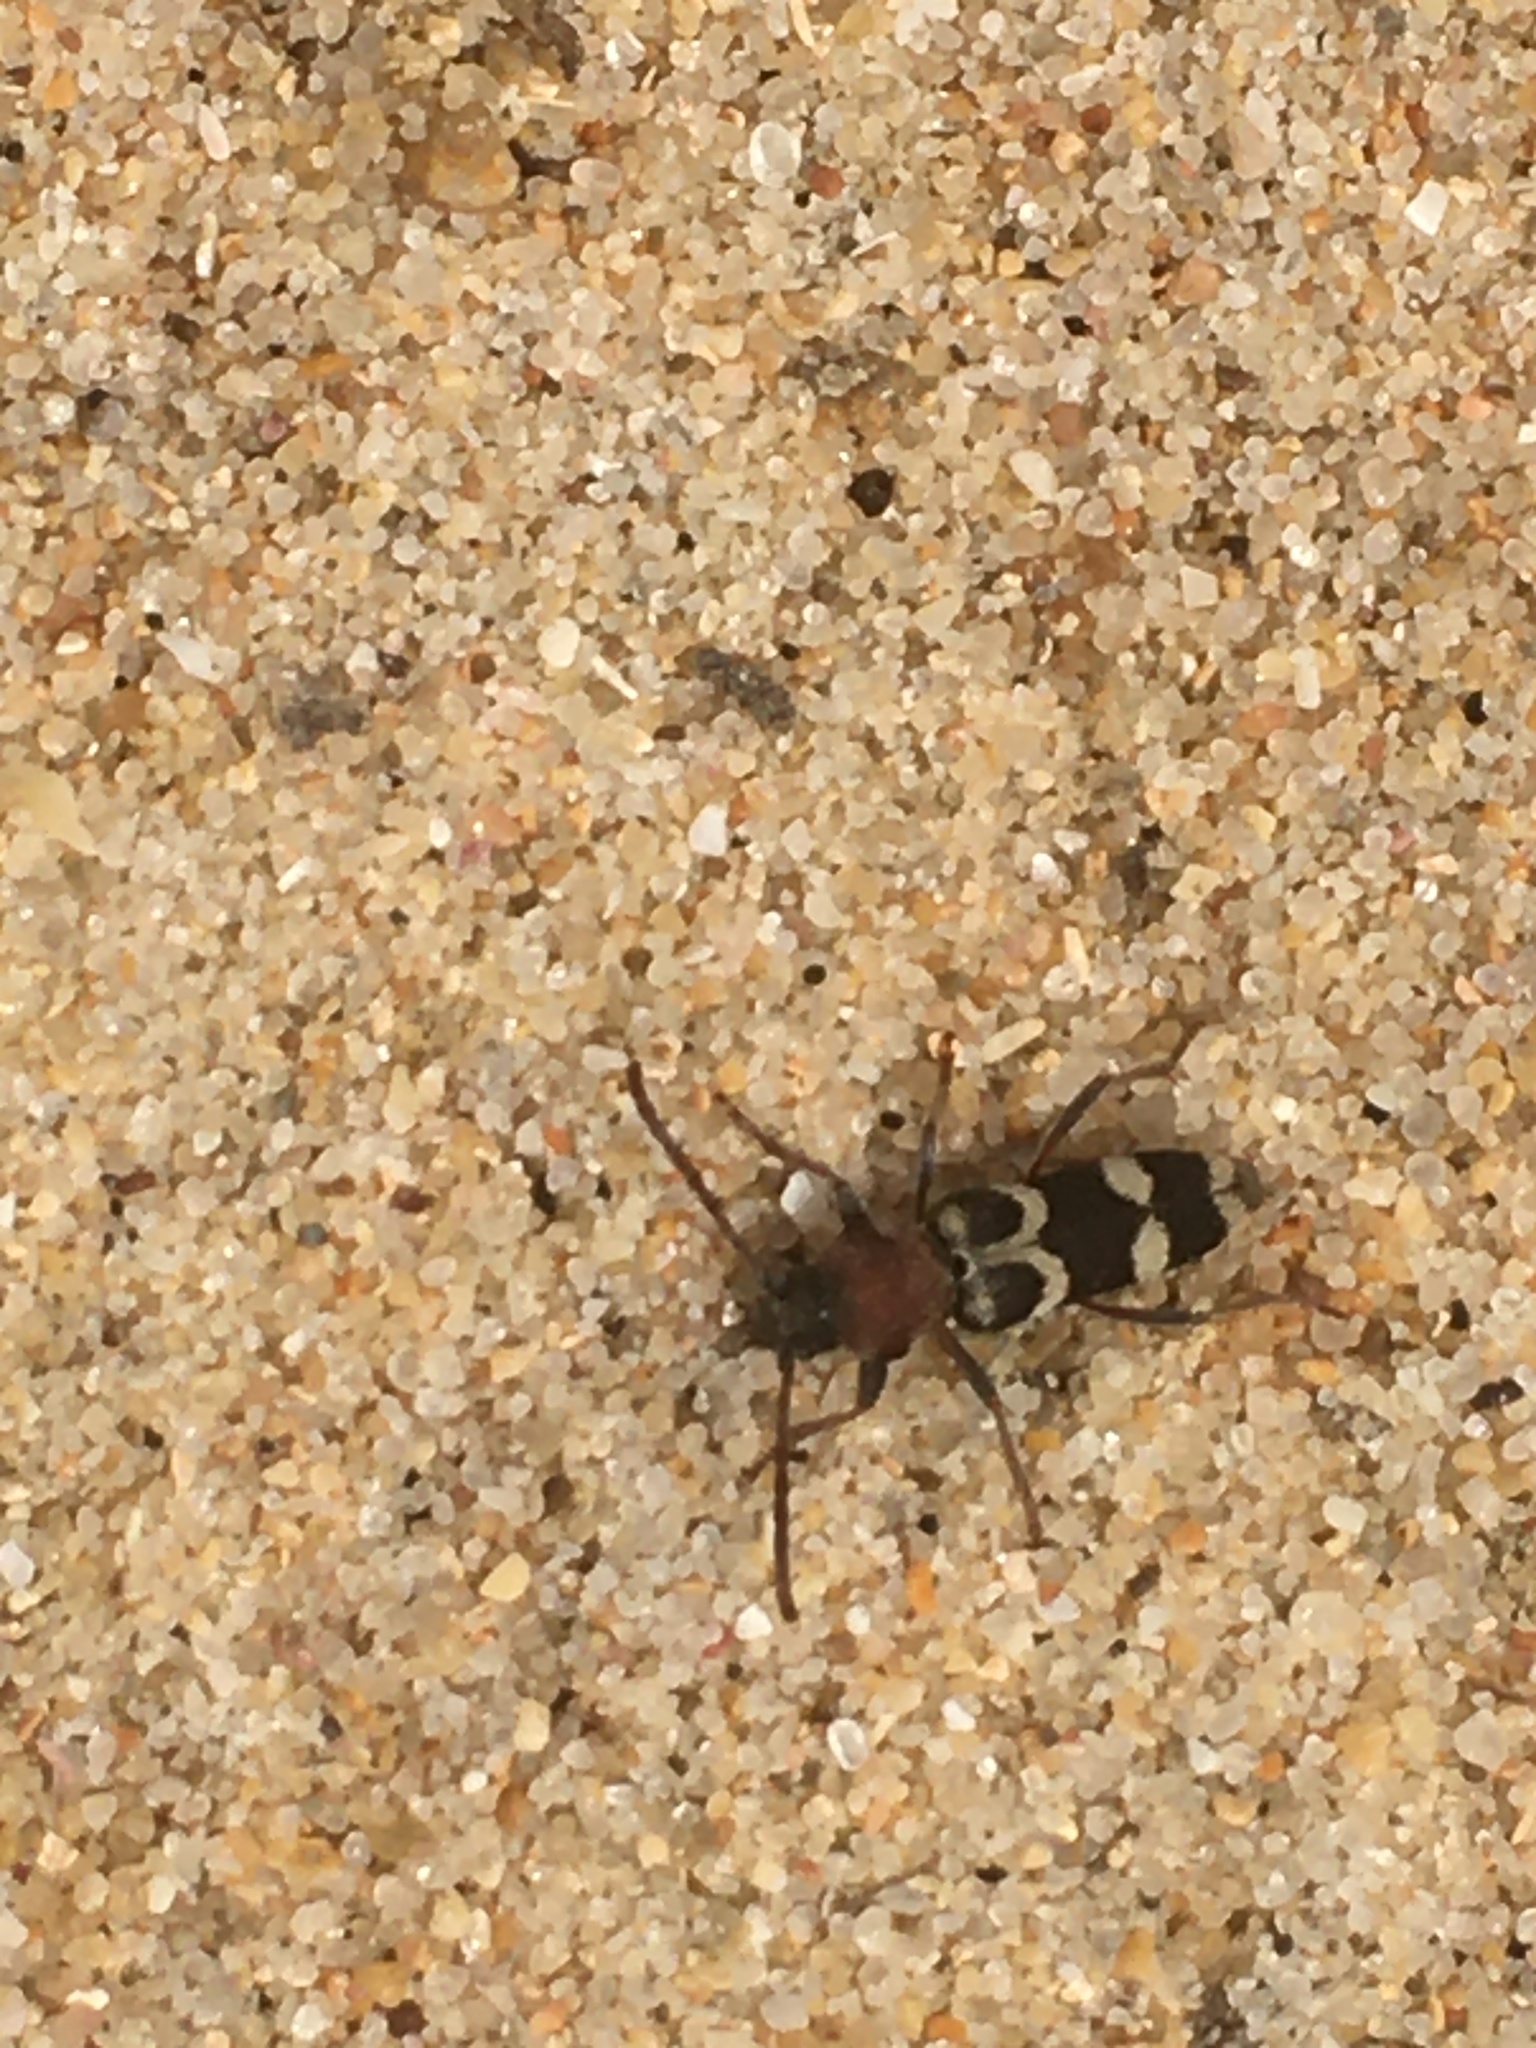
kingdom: Animalia
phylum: Arthropoda
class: Insecta
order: Coleoptera
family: Cerambycidae
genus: Chlorophorus
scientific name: Chlorophorus trifasciatus
